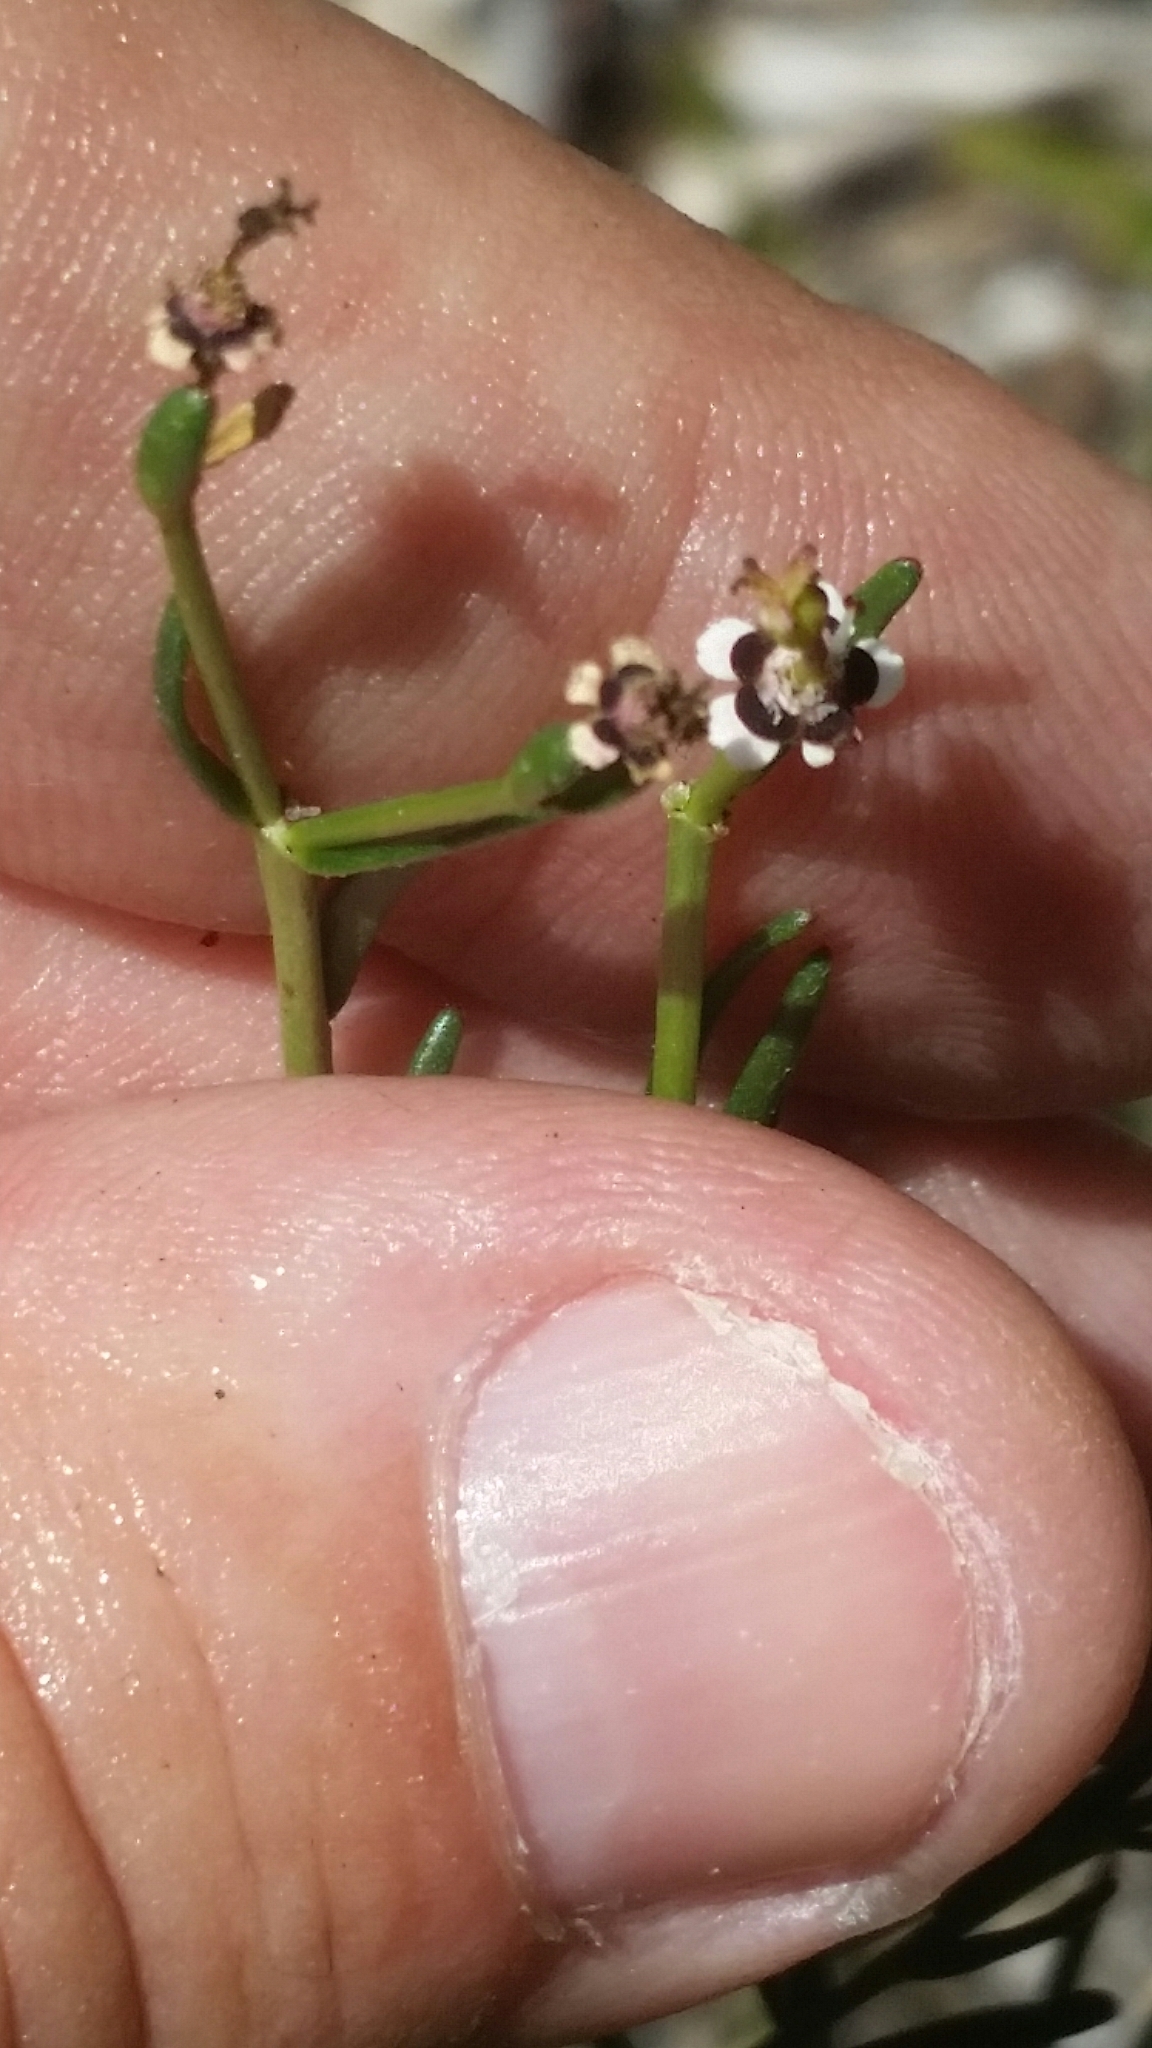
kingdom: Plantae
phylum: Tracheophyta
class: Magnoliopsida
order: Malpighiales
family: Euphorbiaceae
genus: Euphorbia
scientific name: Euphorbia polyphylla
